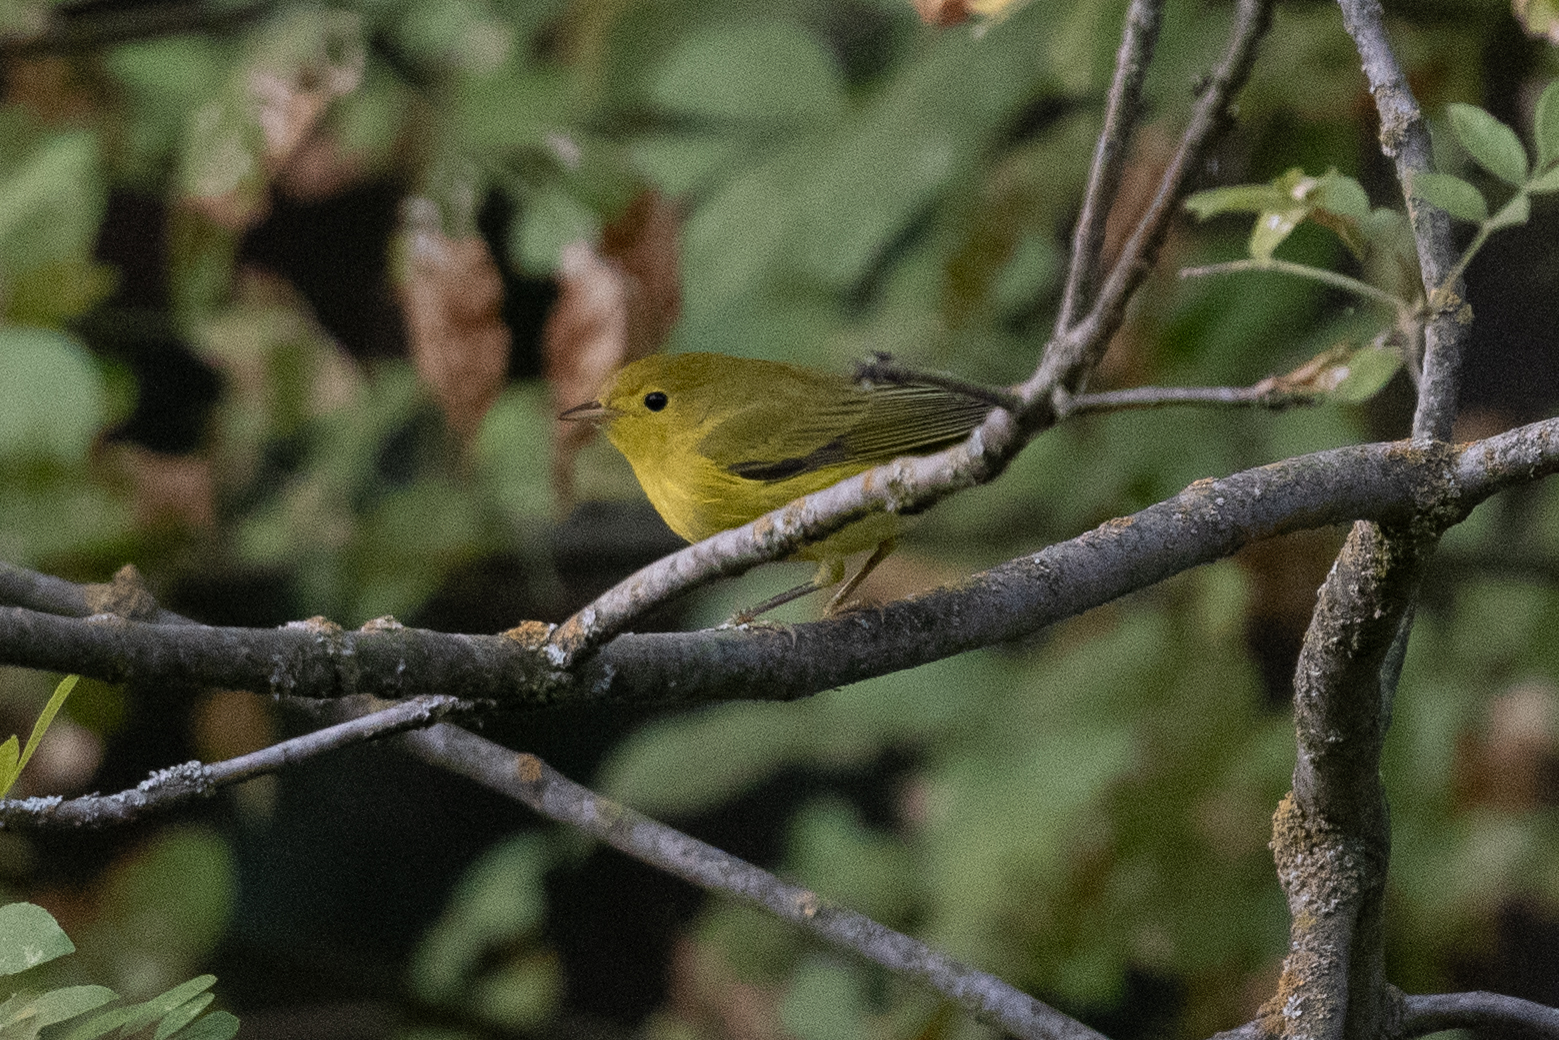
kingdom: Animalia
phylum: Chordata
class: Aves
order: Passeriformes
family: Parulidae
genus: Setophaga
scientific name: Setophaga petechia
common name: Yellow warbler
